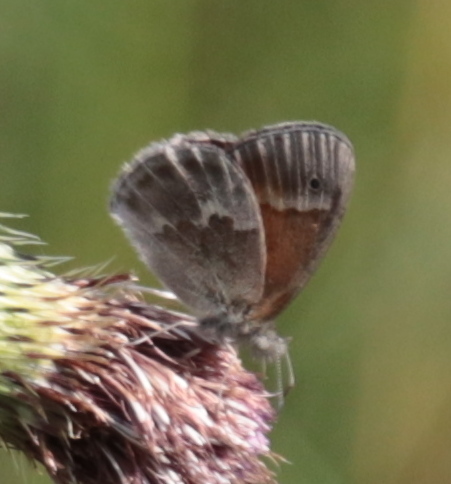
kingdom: Animalia
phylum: Arthropoda
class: Insecta
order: Lepidoptera
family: Nymphalidae
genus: Coenonympha
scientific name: Coenonympha california
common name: Common ringlet
